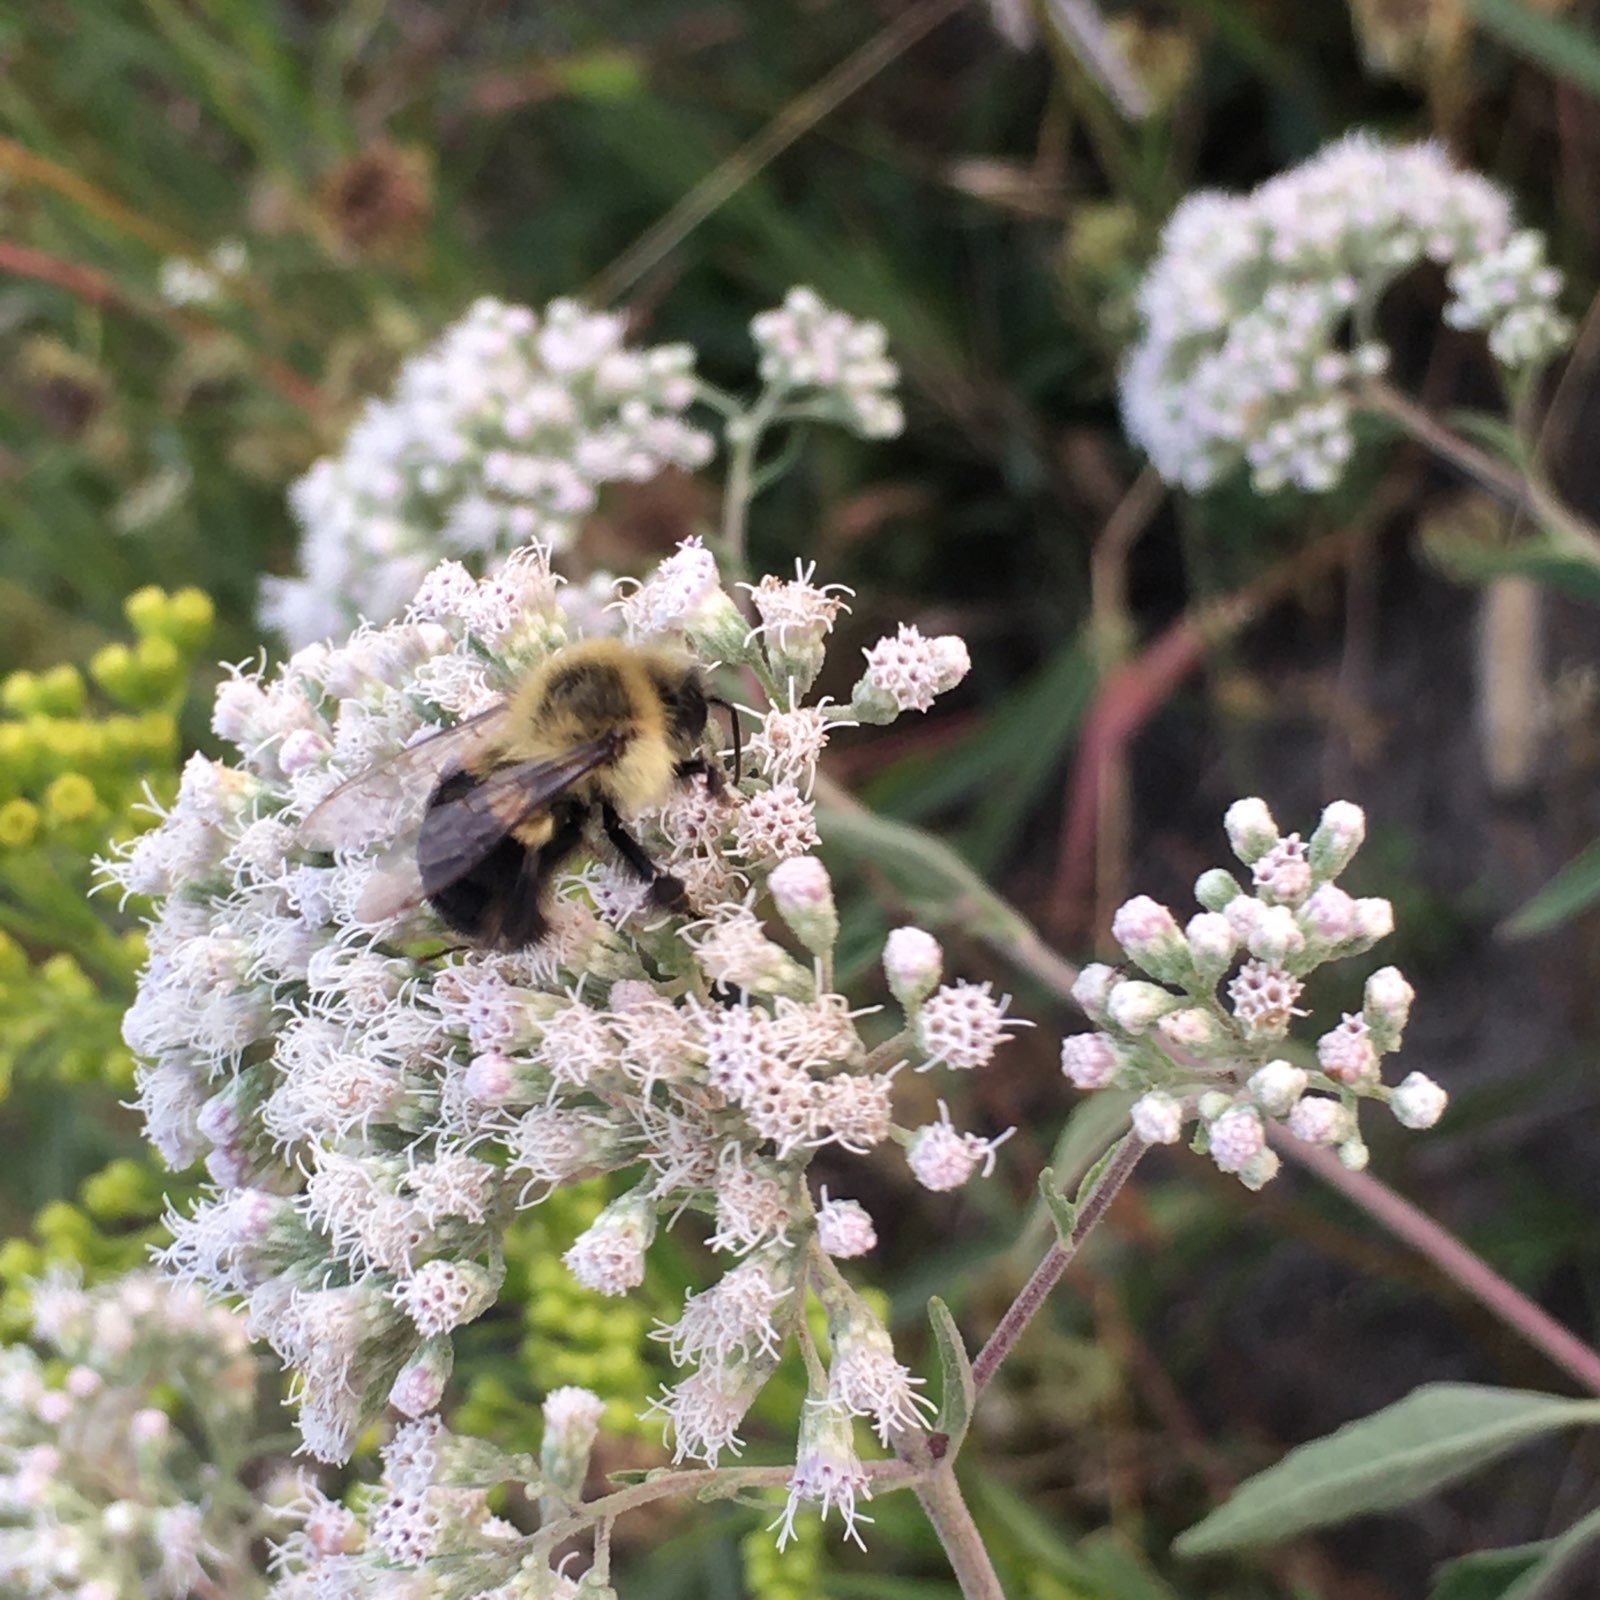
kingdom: Animalia
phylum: Arthropoda
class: Insecta
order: Hymenoptera
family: Apidae
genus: Bombus
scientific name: Bombus impatiens
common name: Common eastern bumble bee
